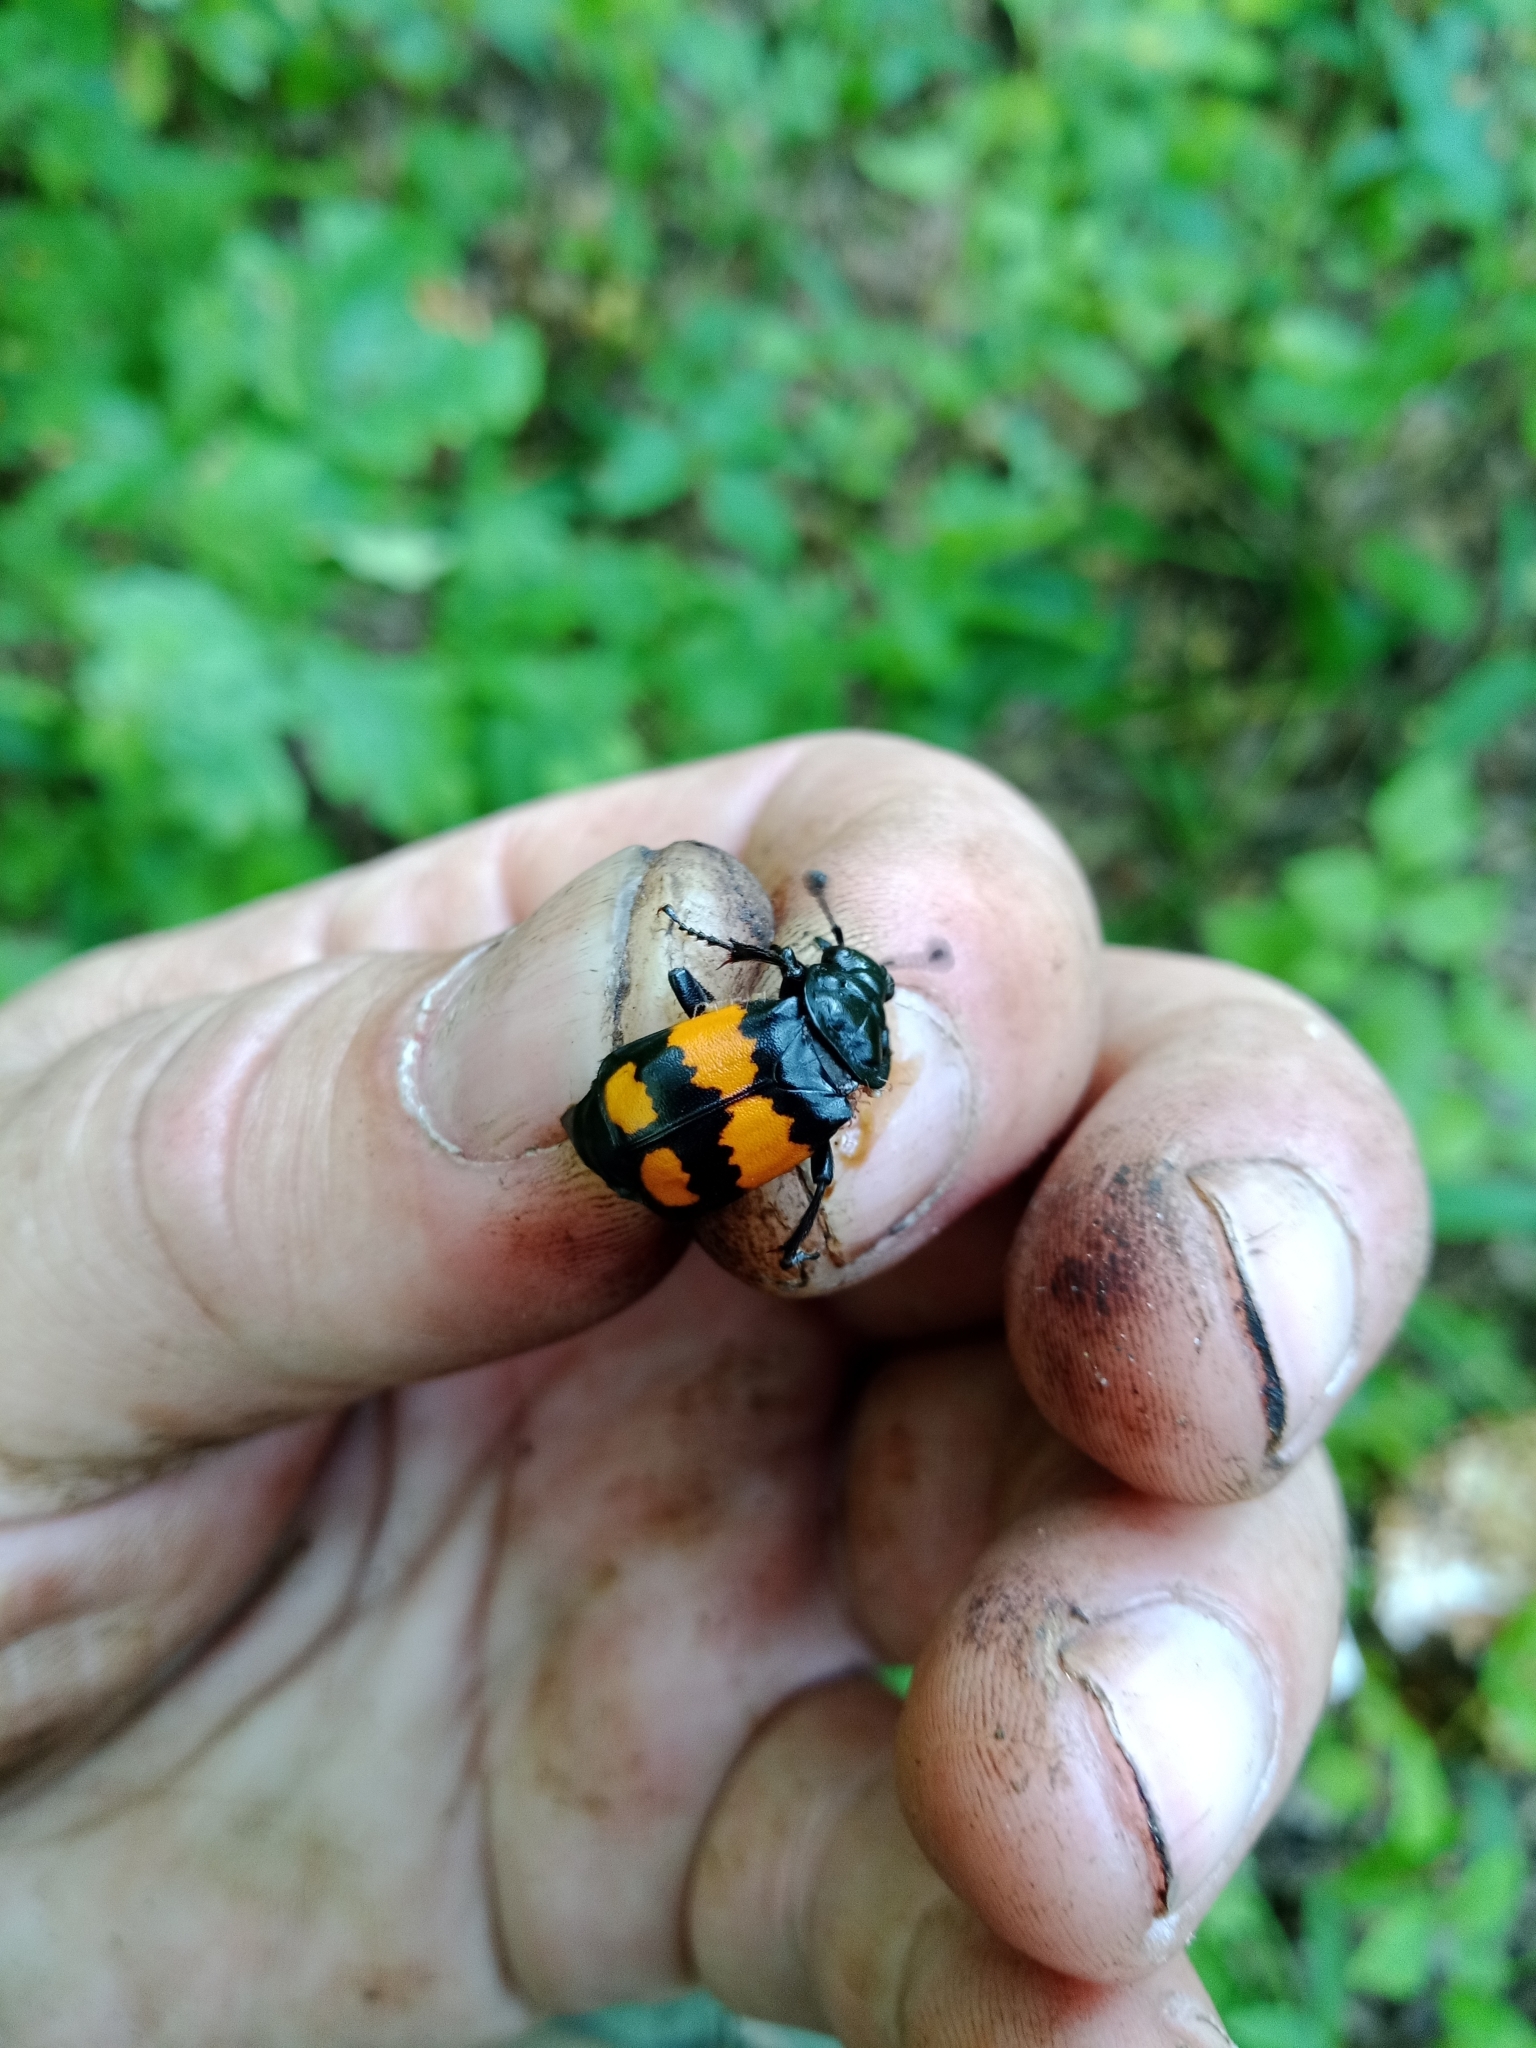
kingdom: Animalia
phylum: Arthropoda
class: Insecta
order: Coleoptera
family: Staphylinidae
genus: Nicrophorus
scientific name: Nicrophorus vespilloides
